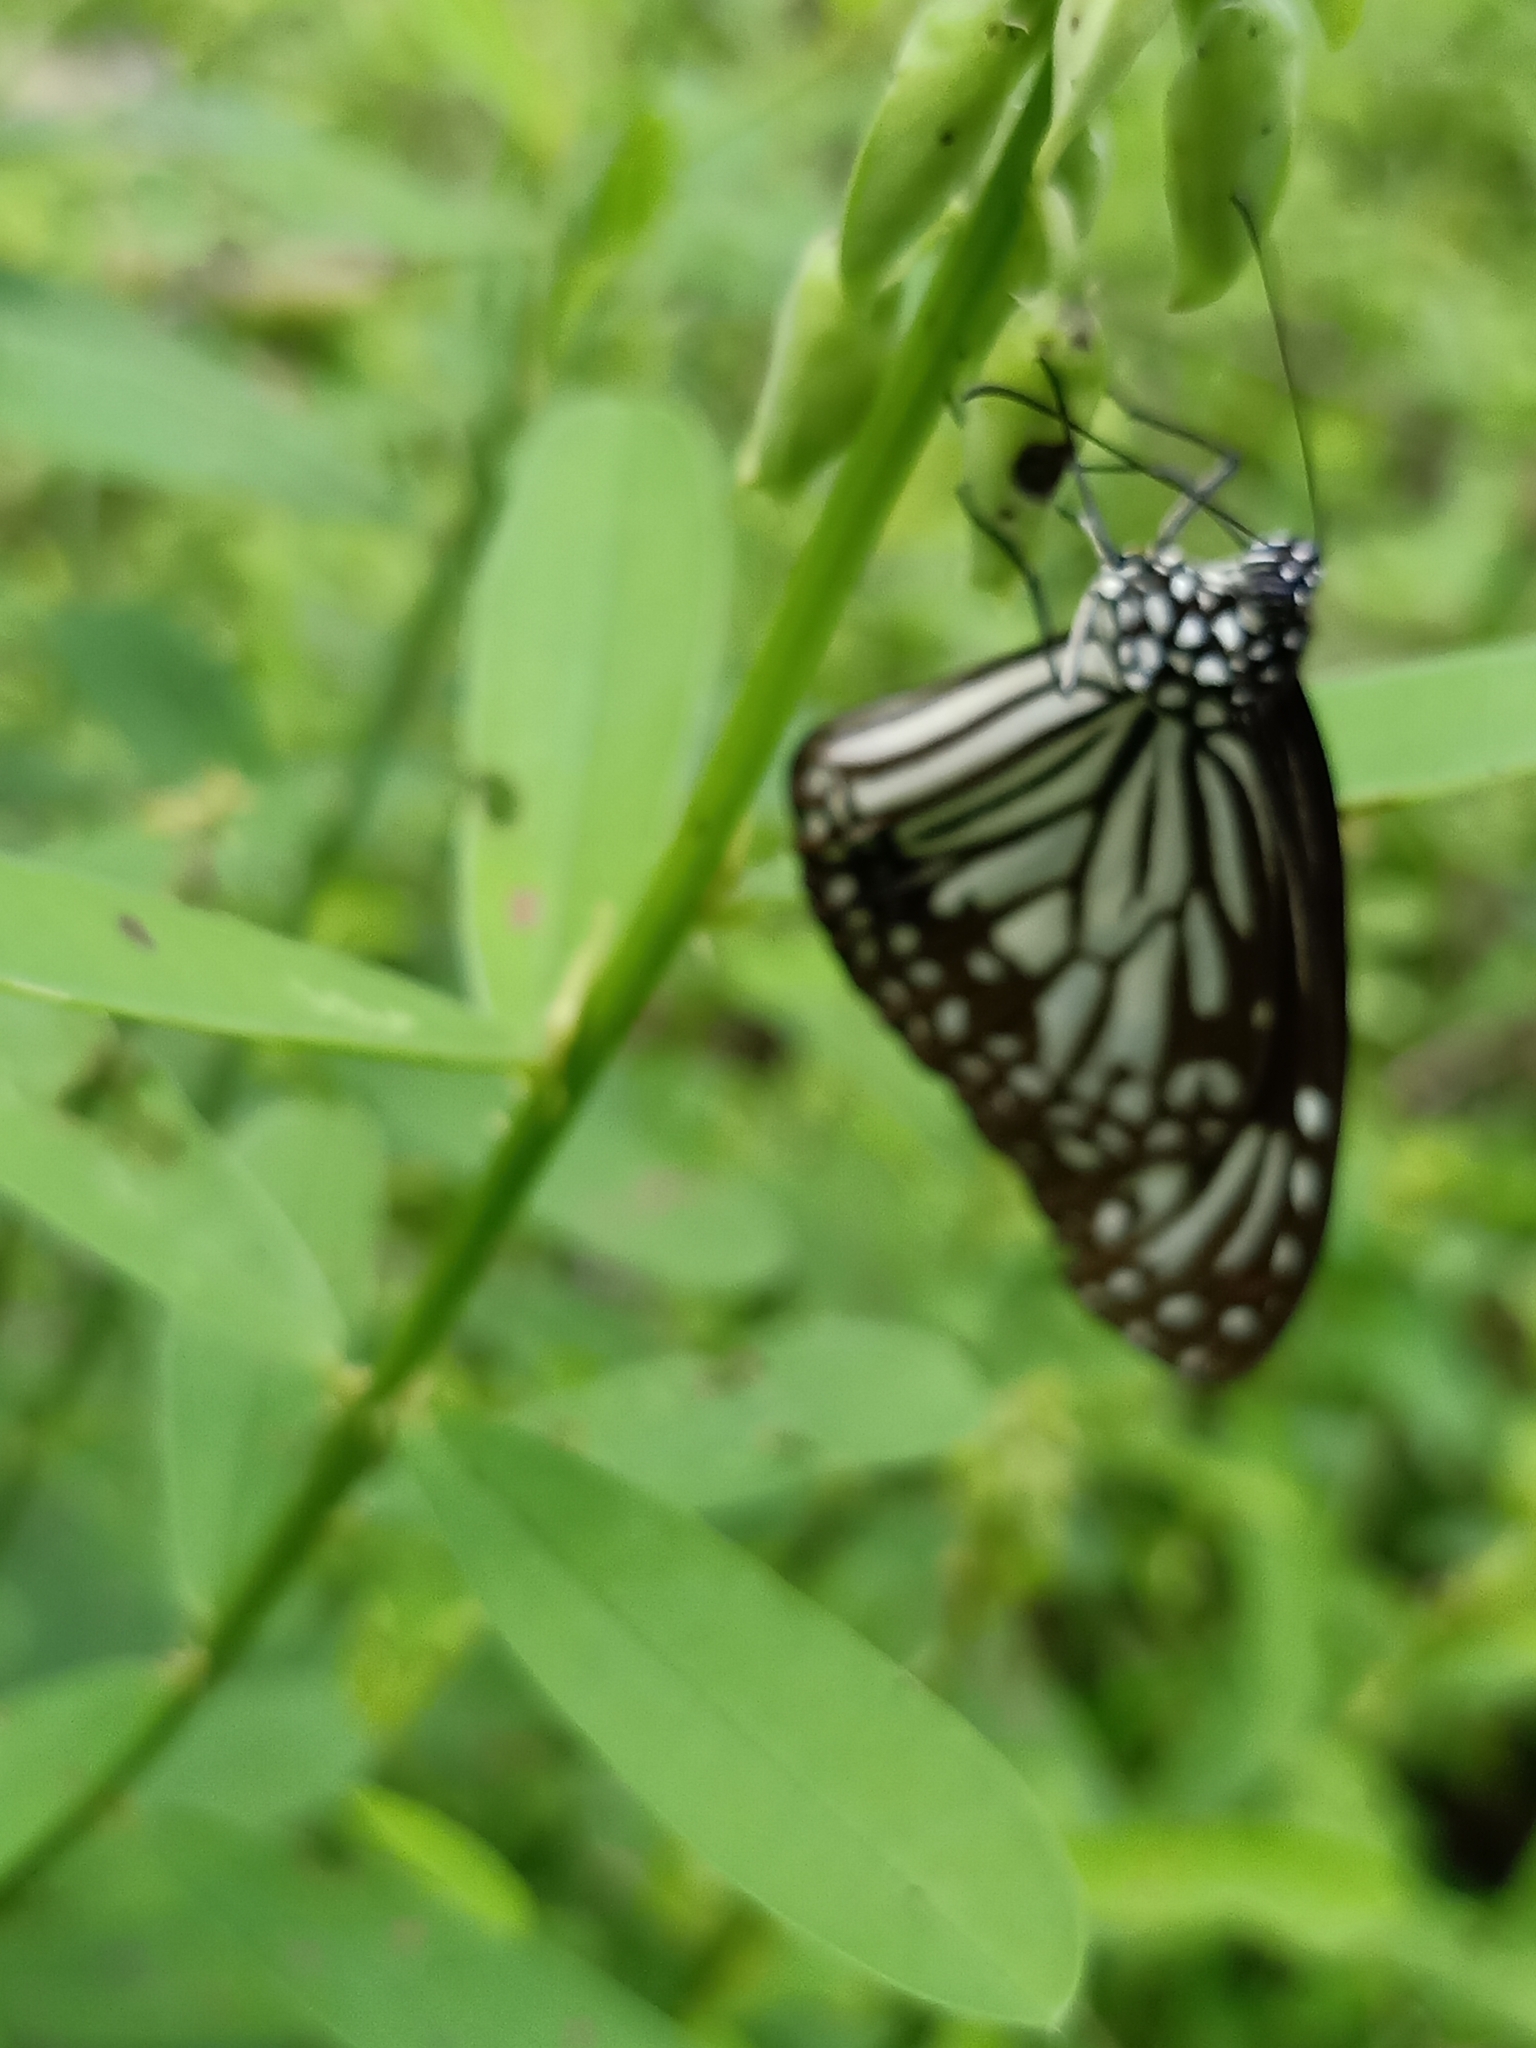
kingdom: Animalia
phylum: Arthropoda
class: Insecta
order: Lepidoptera
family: Nymphalidae
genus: Parantica
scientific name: Parantica aglea
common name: Glassy tiger
